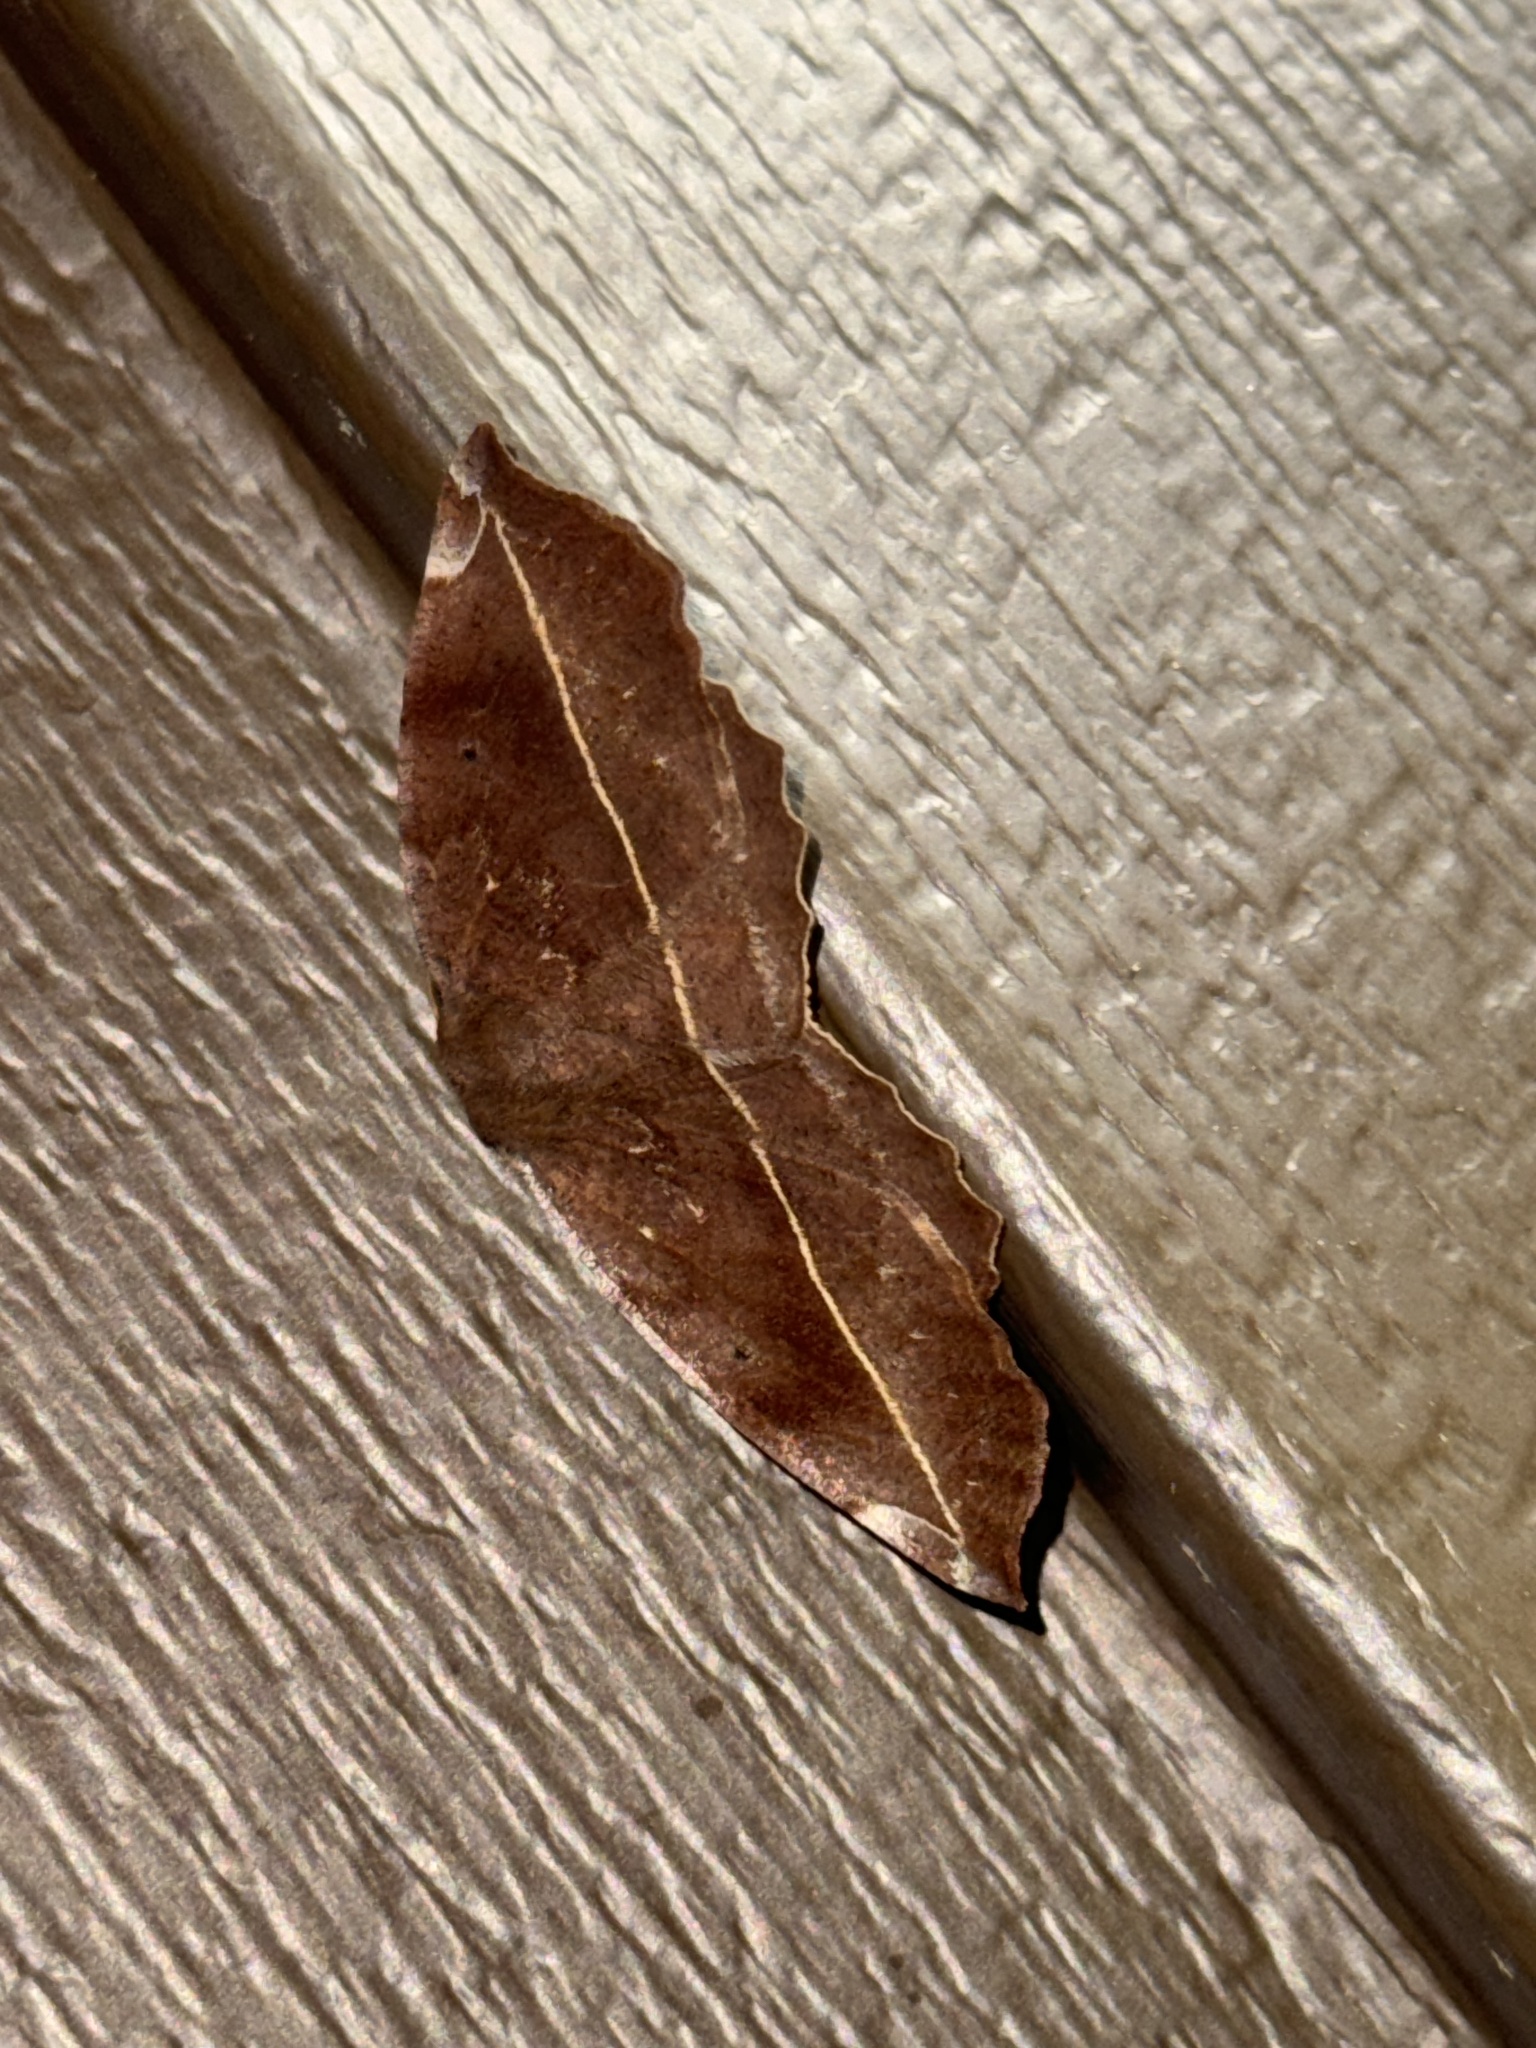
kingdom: Animalia
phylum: Arthropoda
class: Insecta
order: Lepidoptera
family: Geometridae
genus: Eutrapela
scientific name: Eutrapela clemataria
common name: Curved-toothed geometer
